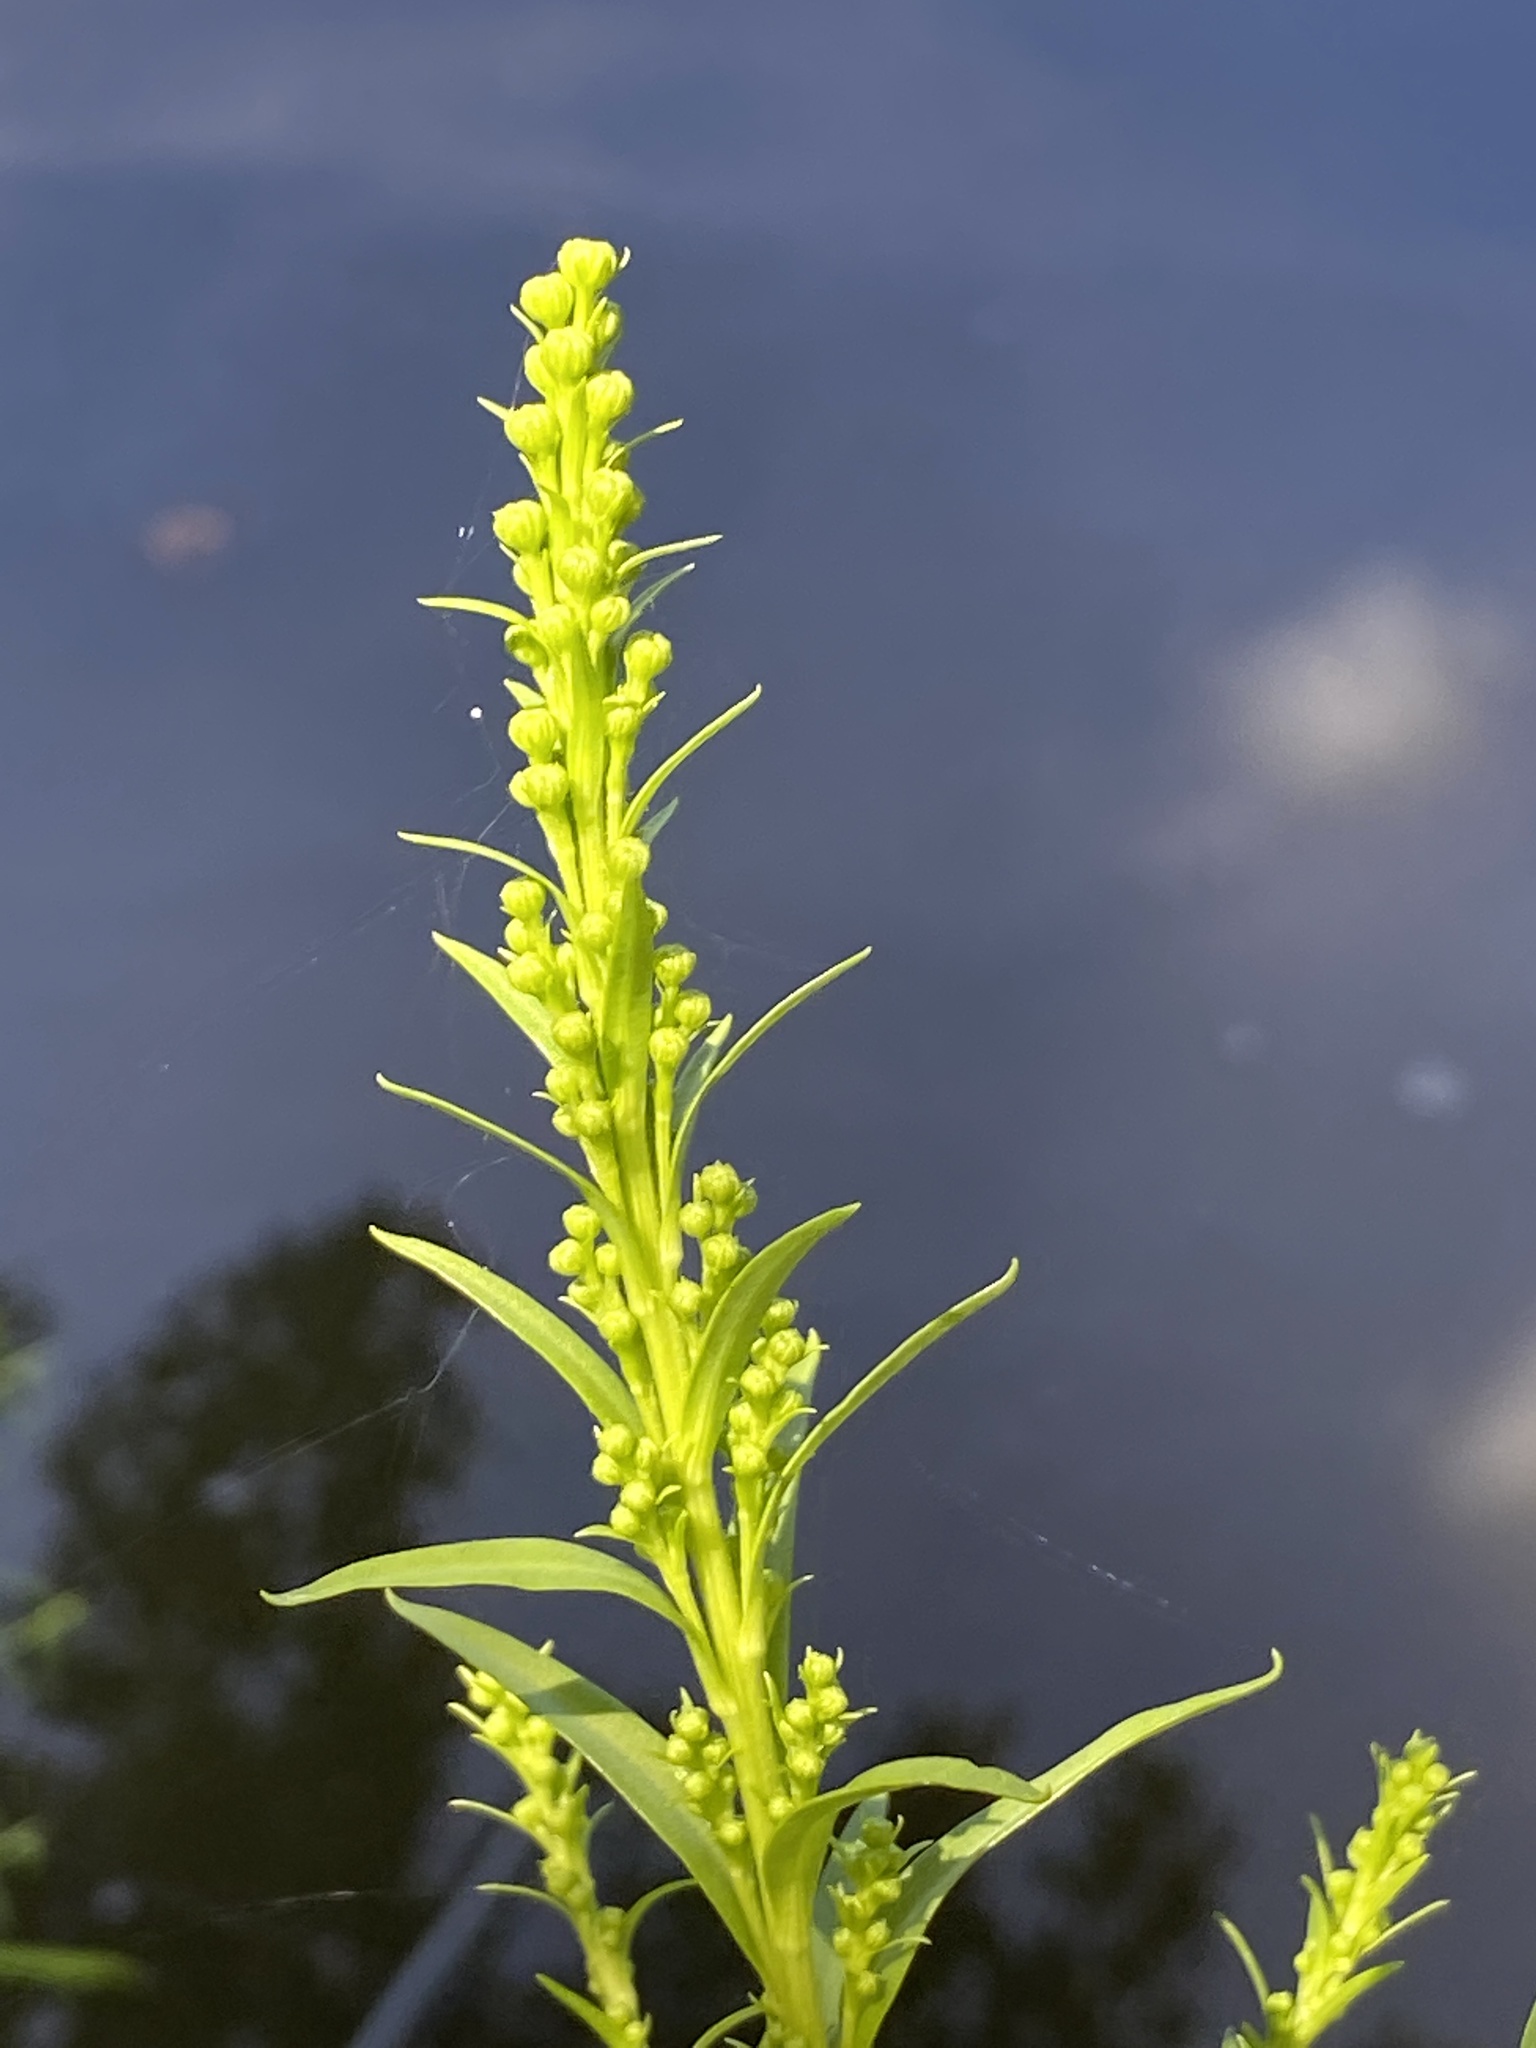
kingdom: Plantae
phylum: Tracheophyta
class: Magnoliopsida
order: Asterales
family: Asteraceae
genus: Solidago
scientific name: Solidago sempervirens
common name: Salt-marsh goldenrod
